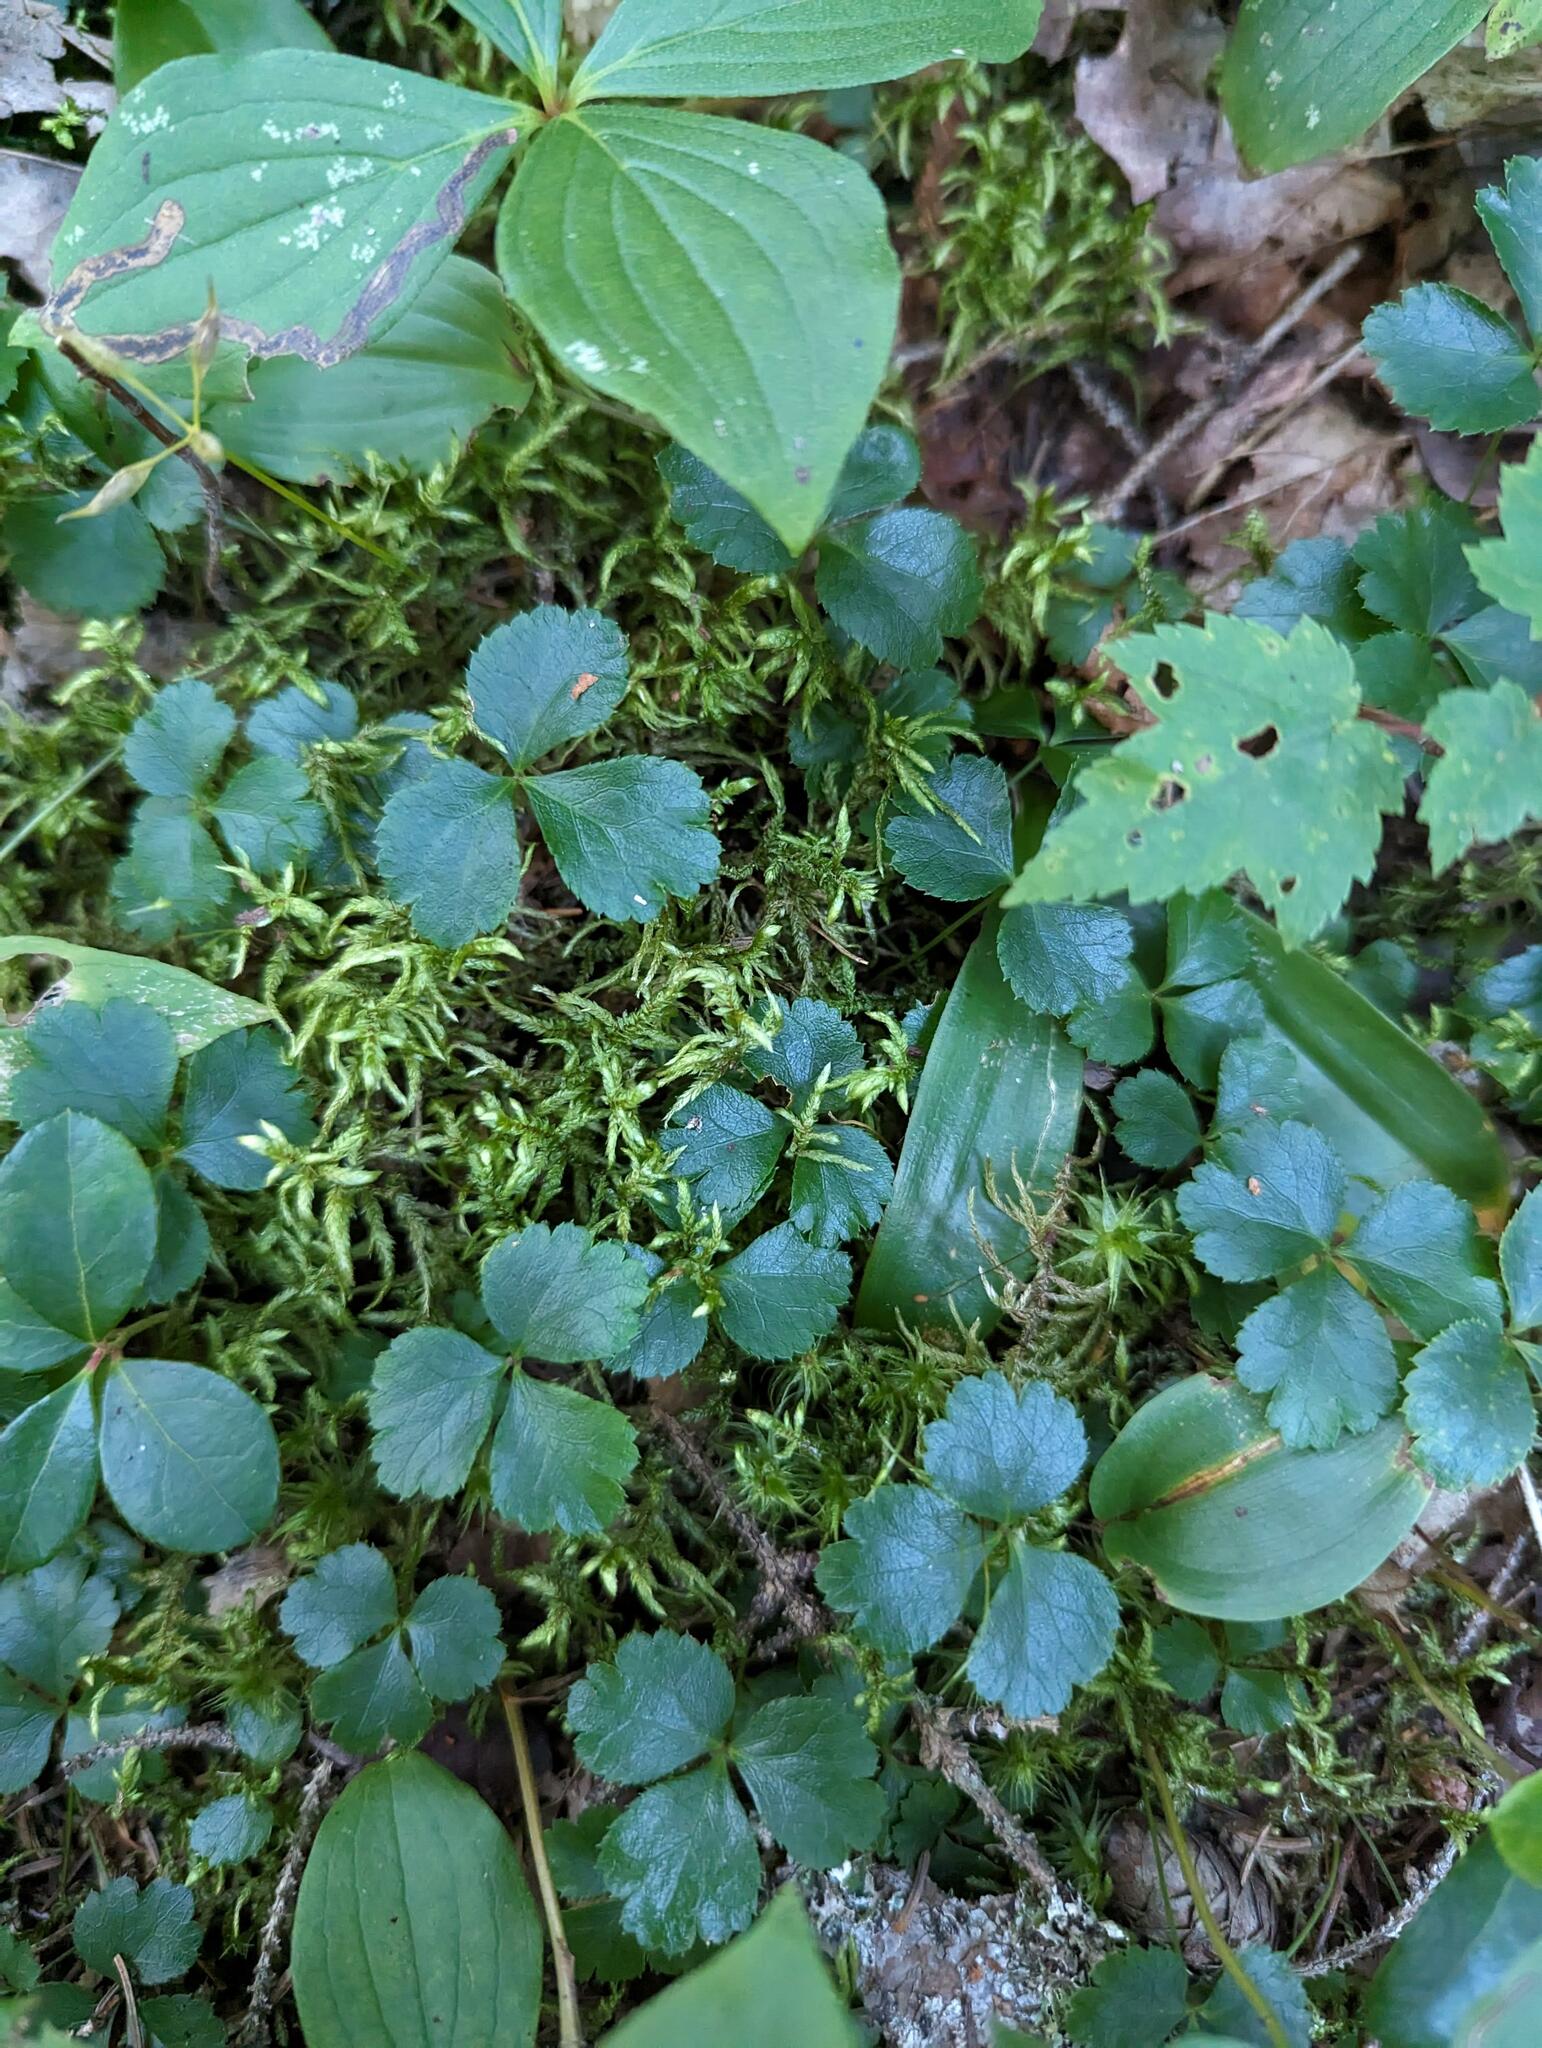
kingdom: Plantae
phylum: Tracheophyta
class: Magnoliopsida
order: Ranunculales
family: Ranunculaceae
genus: Coptis
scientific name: Coptis trifolia
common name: Canker-root
